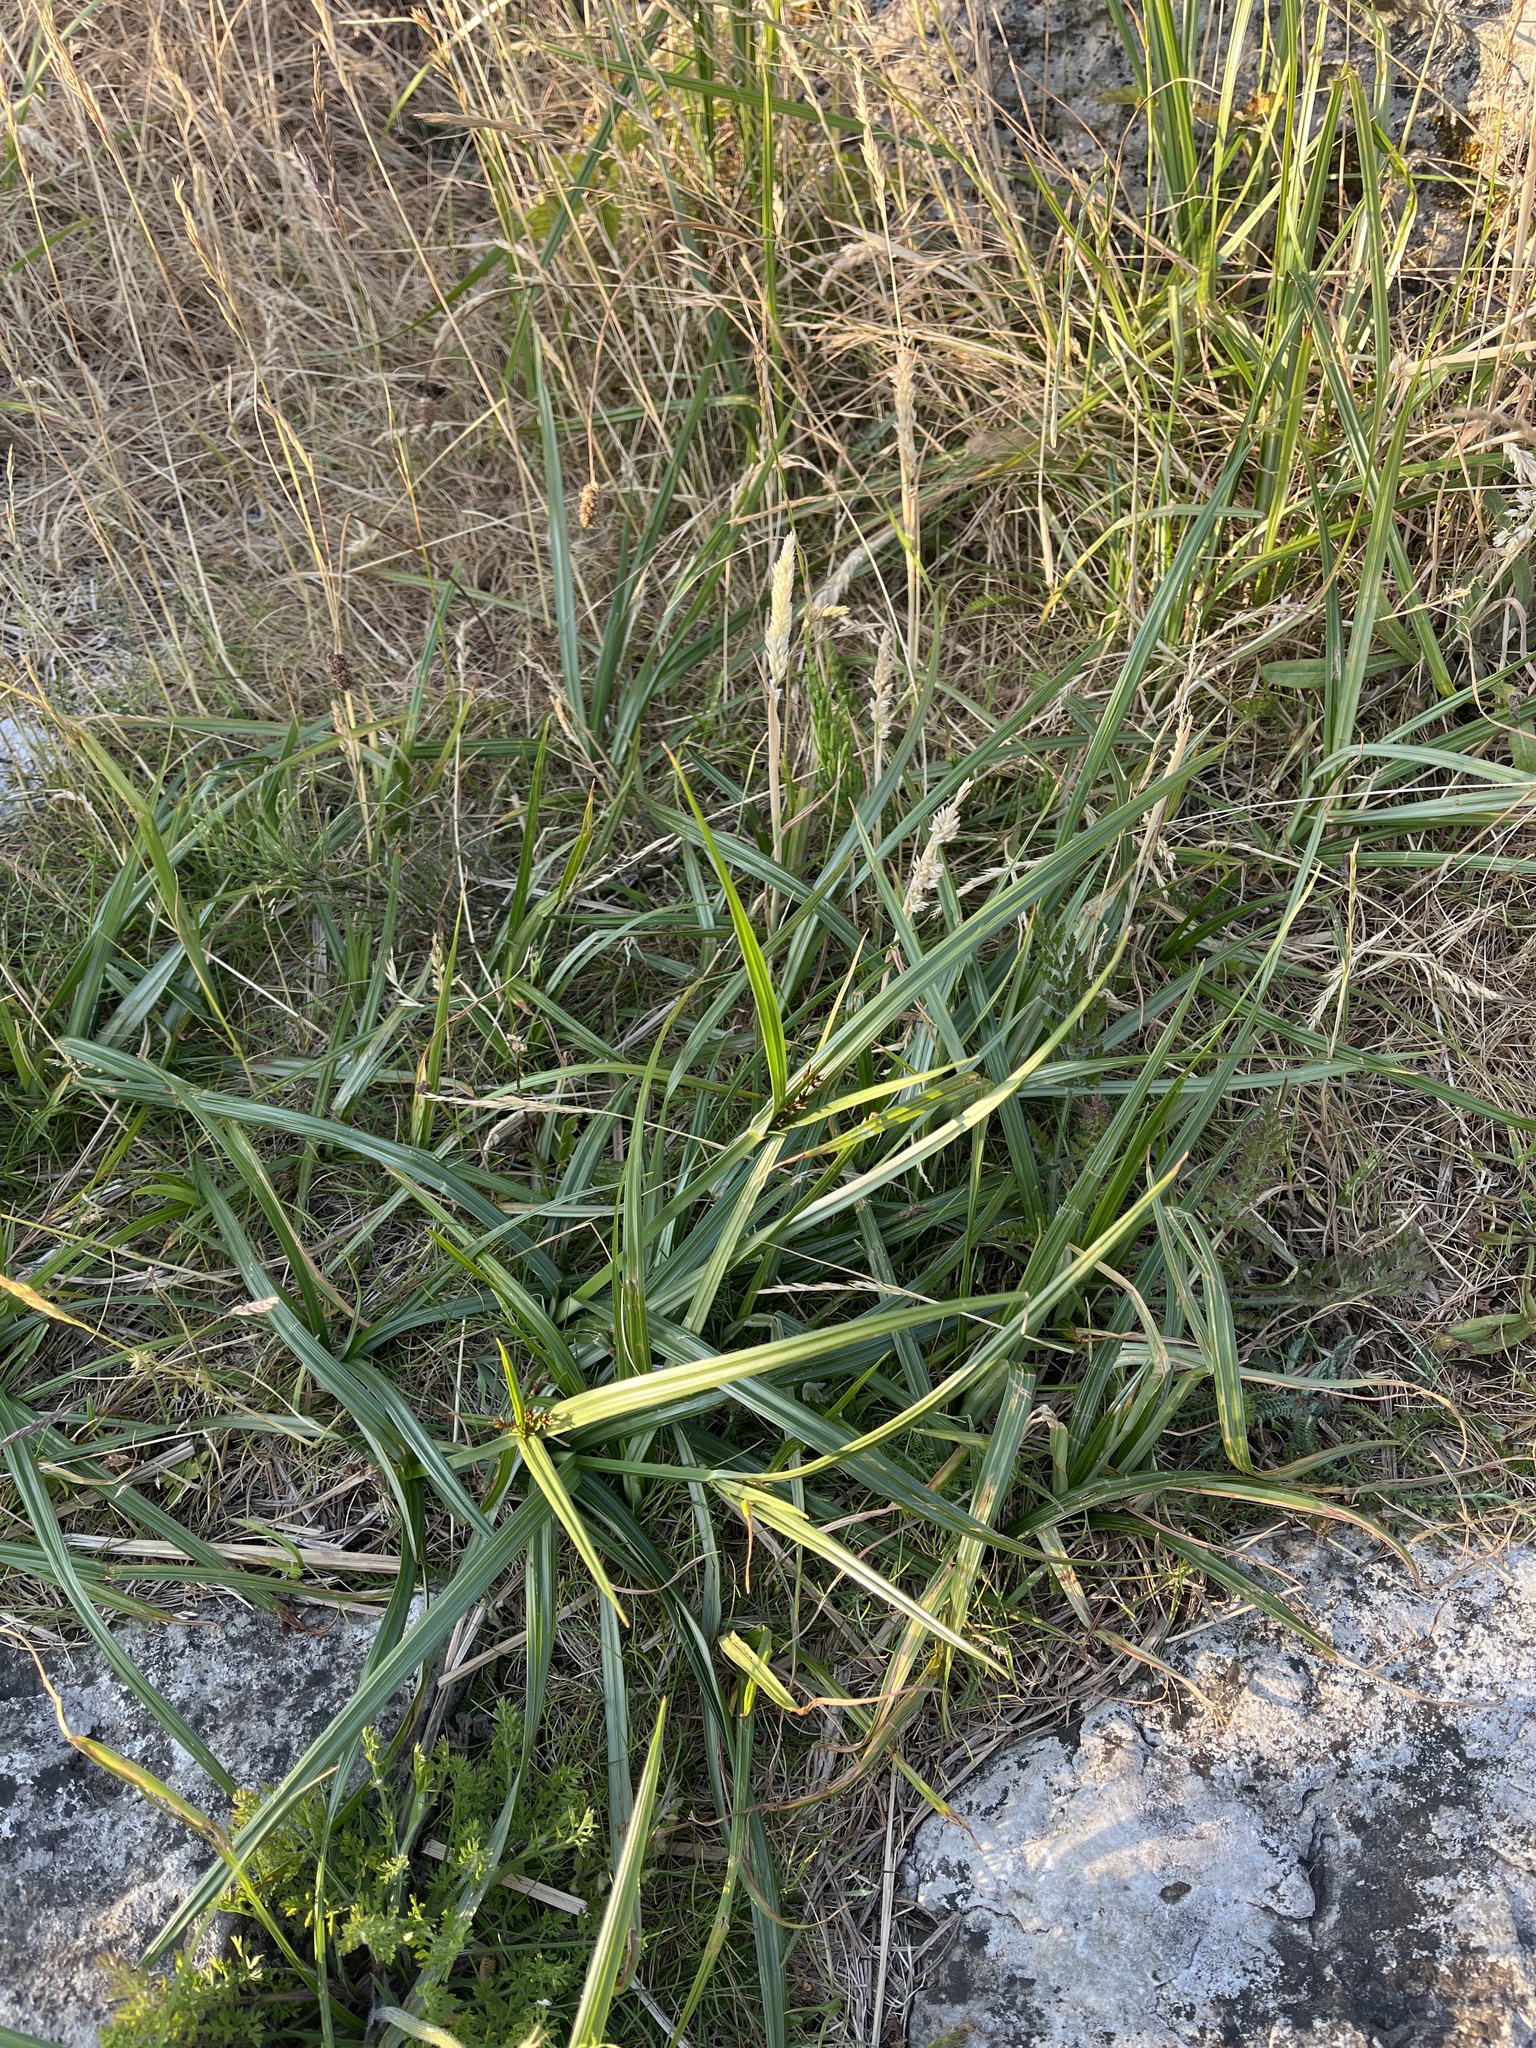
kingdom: Plantae
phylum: Tracheophyta
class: Liliopsida
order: Poales
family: Cyperaceae
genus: Cyperus
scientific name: Cyperus longus
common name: Galingale
